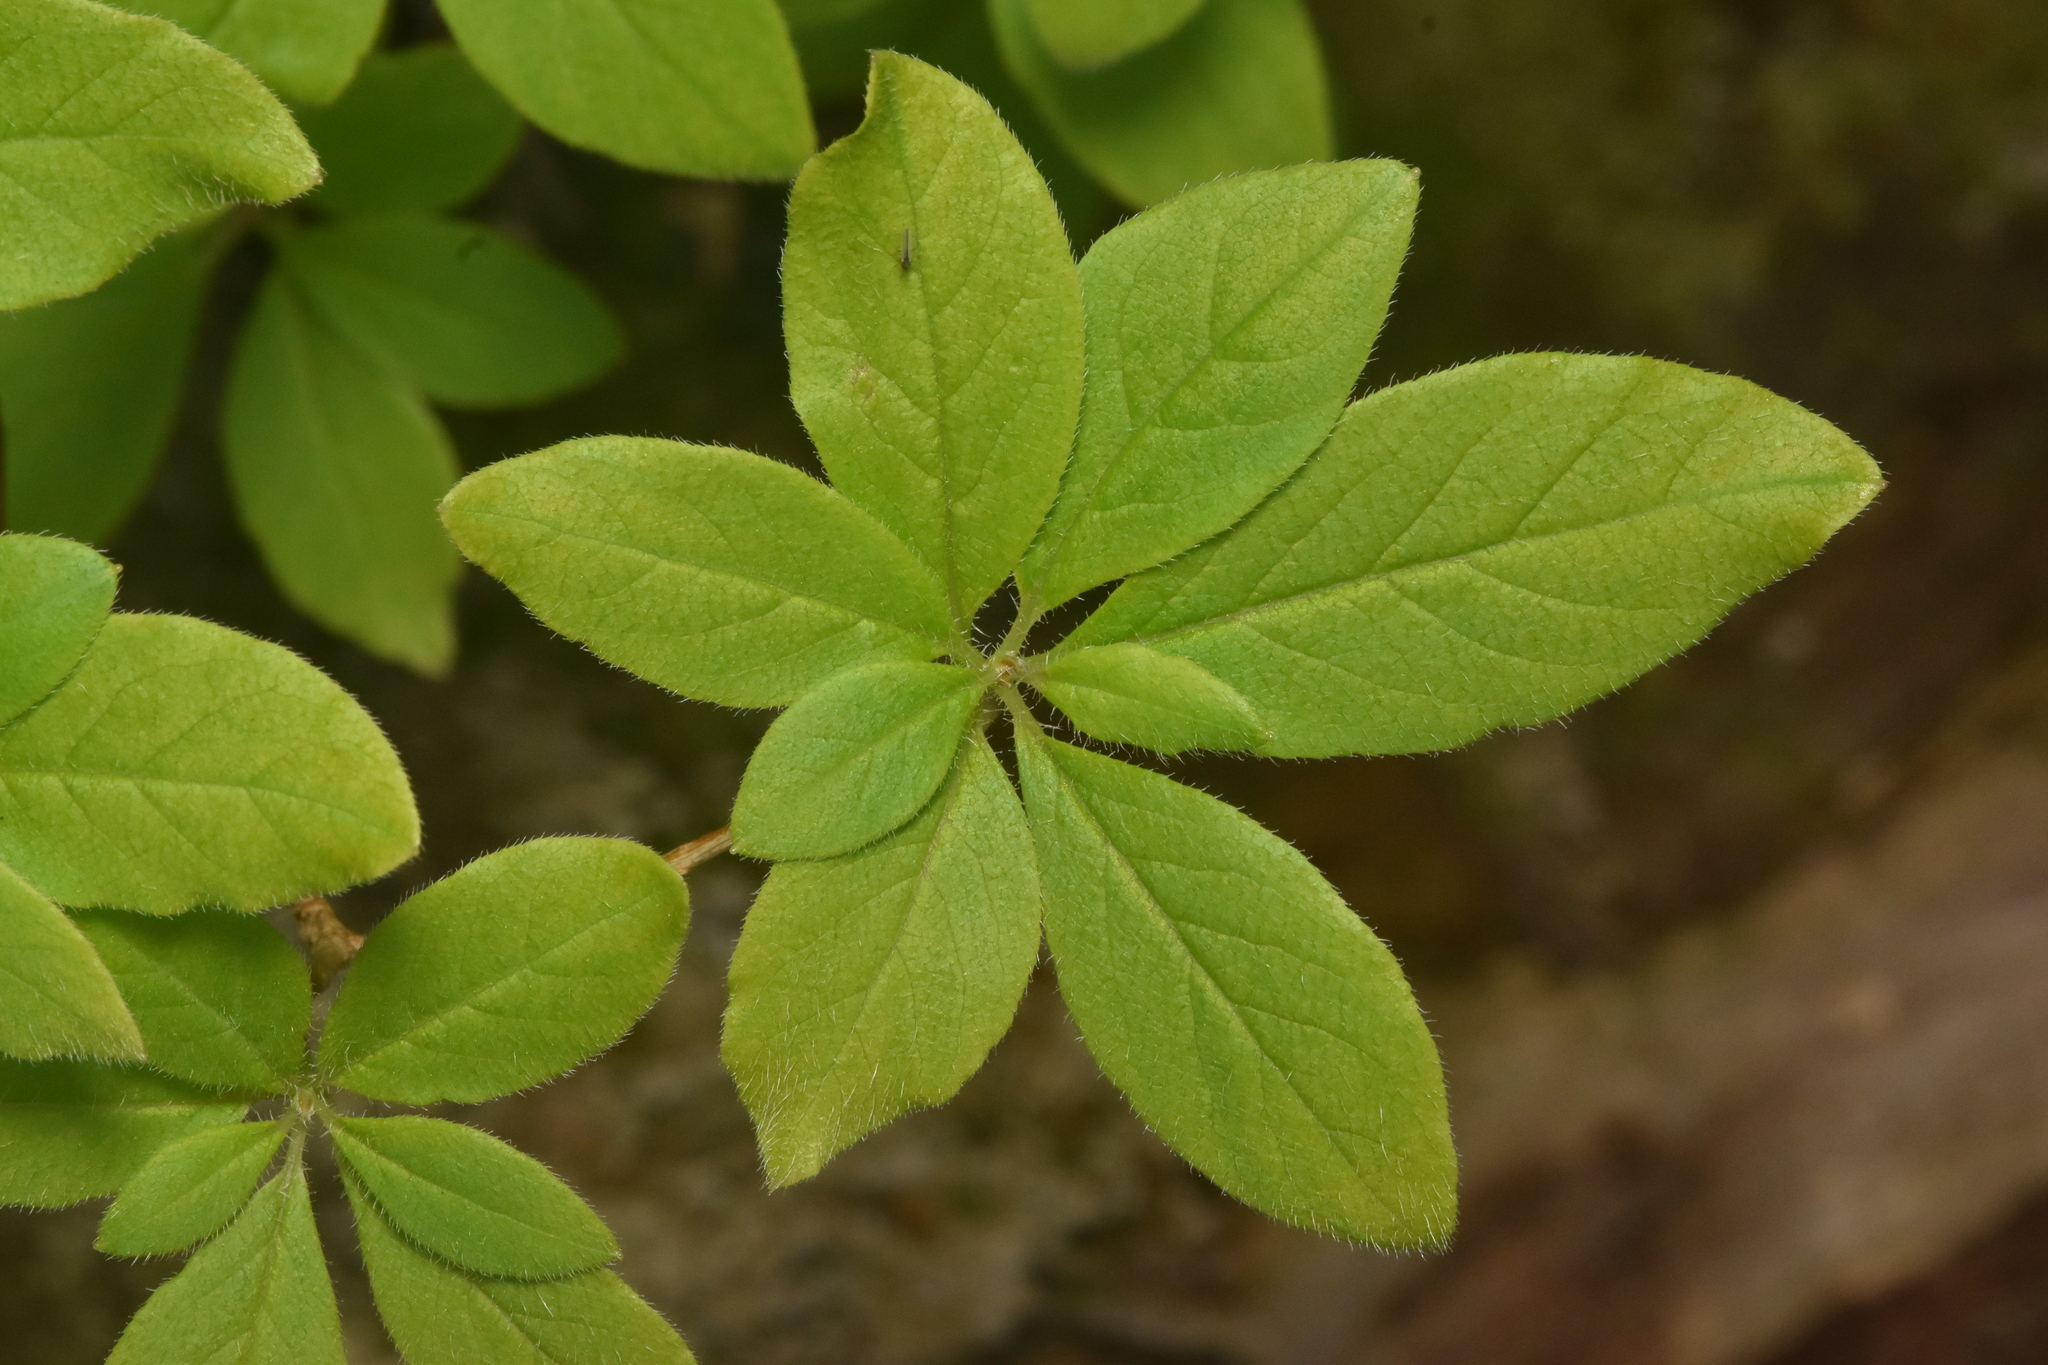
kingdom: Plantae
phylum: Tracheophyta
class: Magnoliopsida
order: Ericales
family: Ericaceae
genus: Rhododendron
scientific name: Rhododendron menziesii
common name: Pacific menziesia
